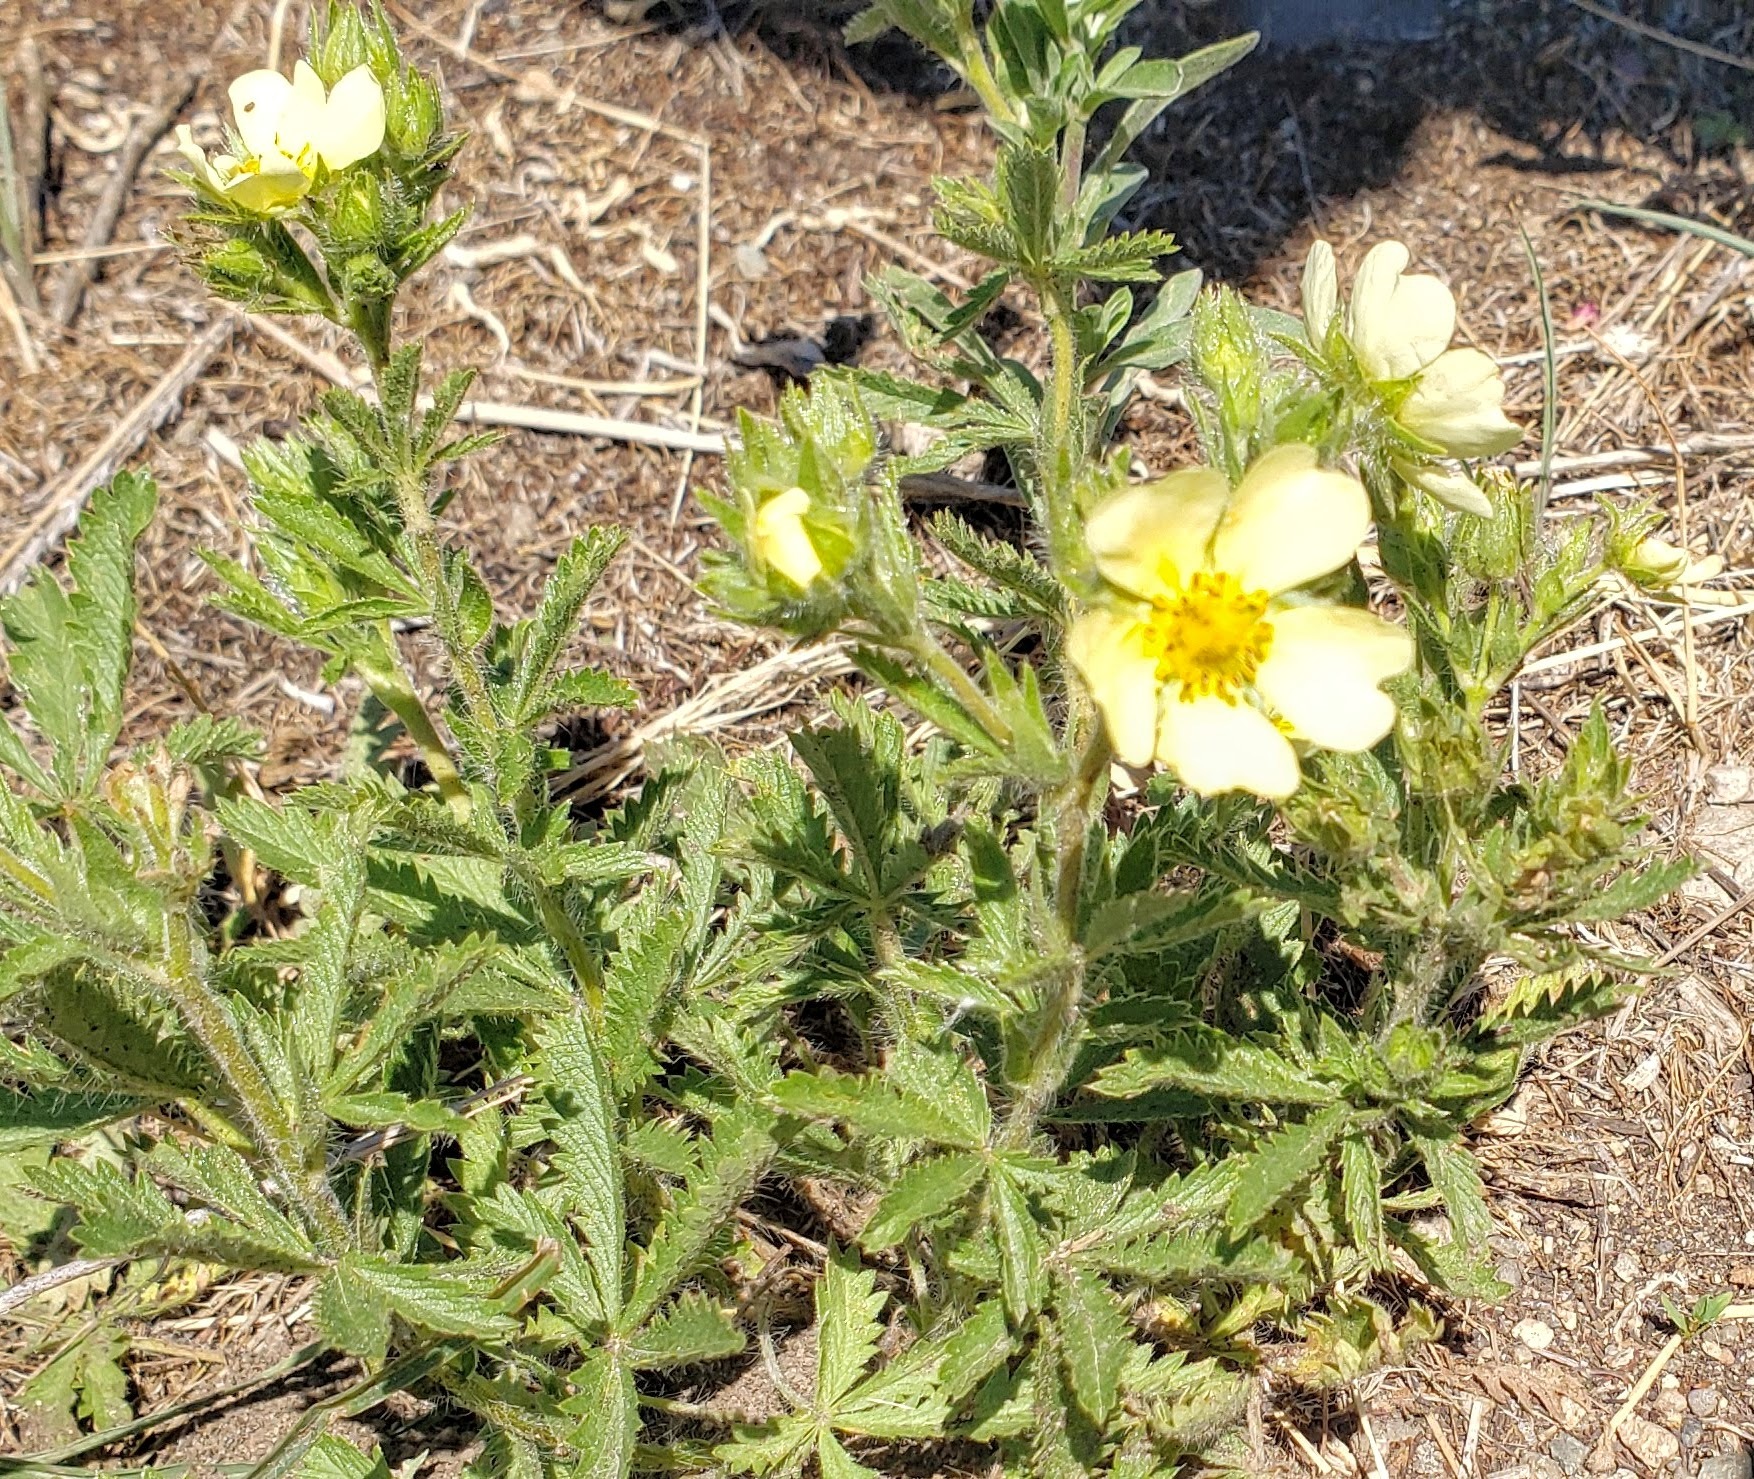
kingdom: Plantae
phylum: Tracheophyta
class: Magnoliopsida
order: Rosales
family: Rosaceae
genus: Potentilla
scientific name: Potentilla recta
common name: Sulphur cinquefoil
